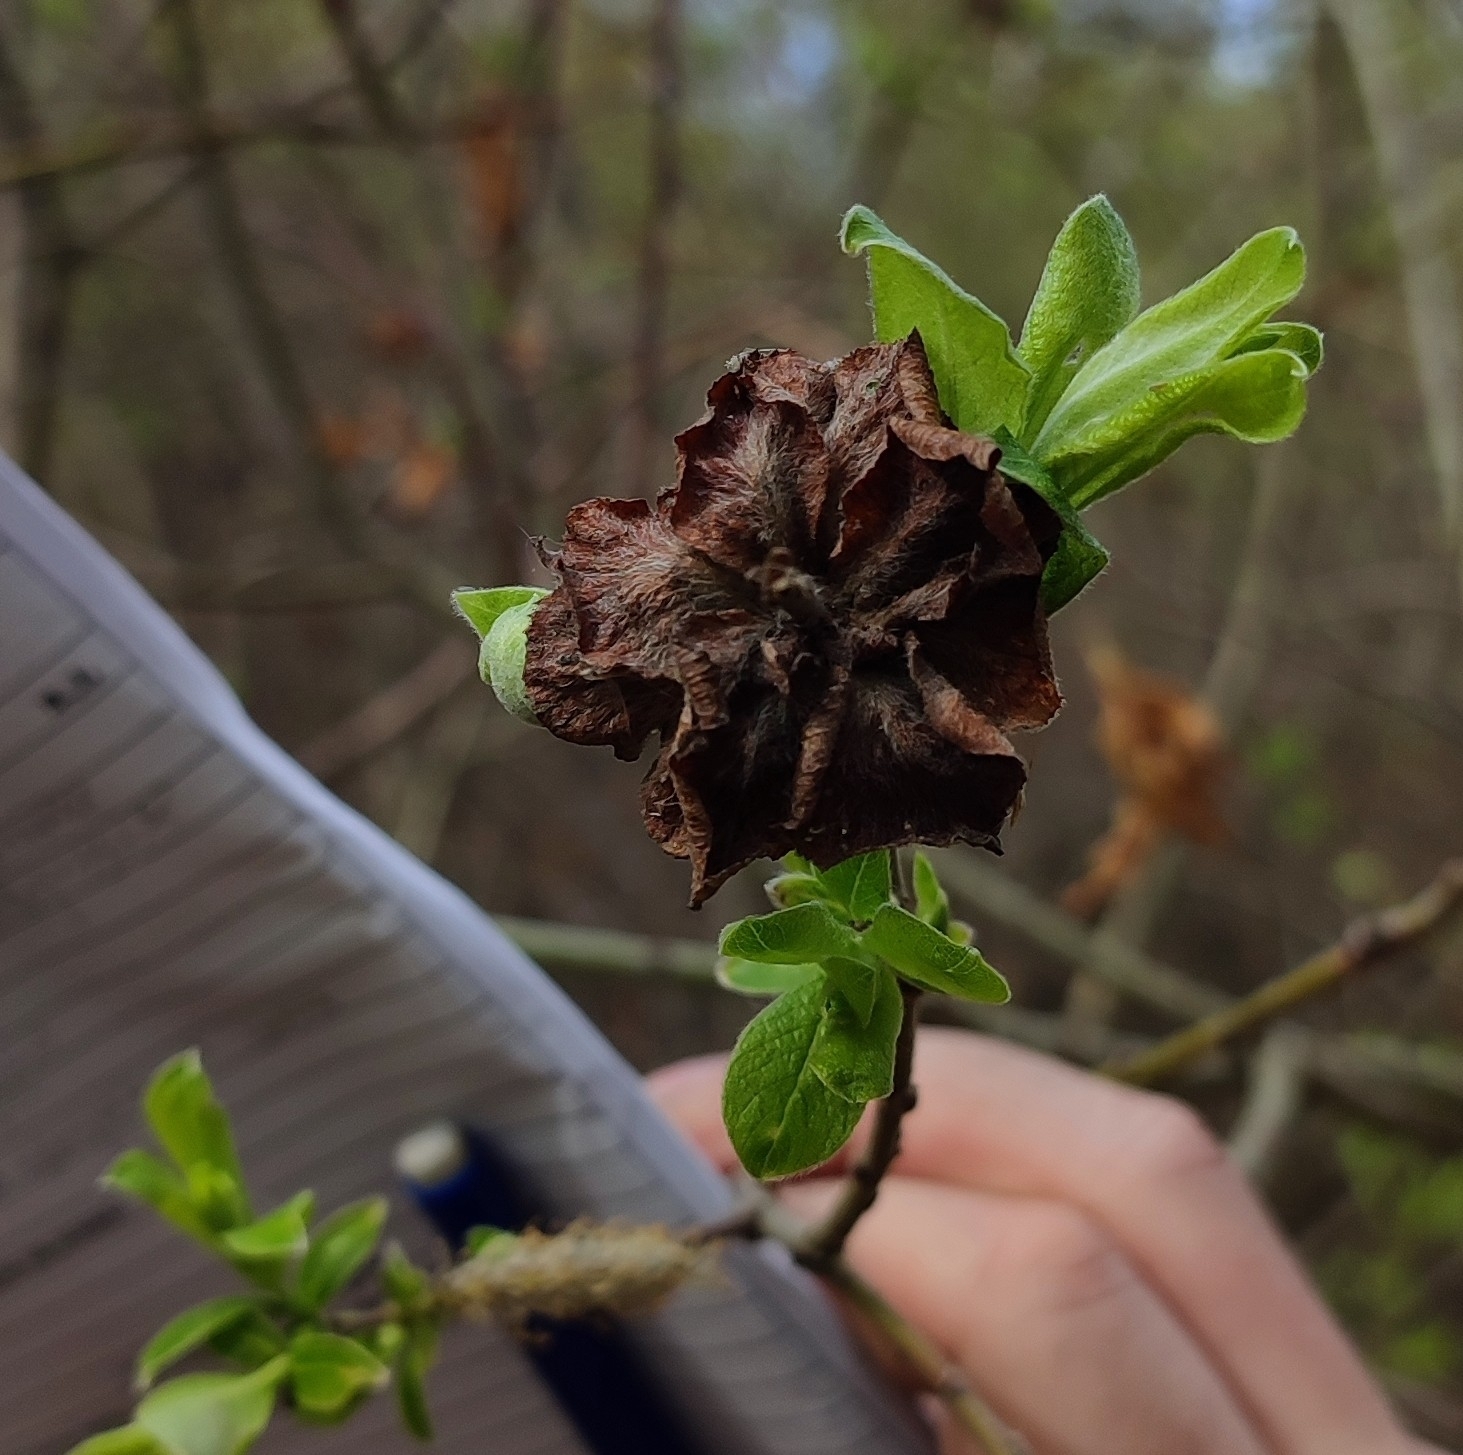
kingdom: Animalia
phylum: Arthropoda
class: Insecta
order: Diptera
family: Cecidomyiidae
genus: Rabdophaga
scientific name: Rabdophaga rosaria
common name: Willow rose gall midge
